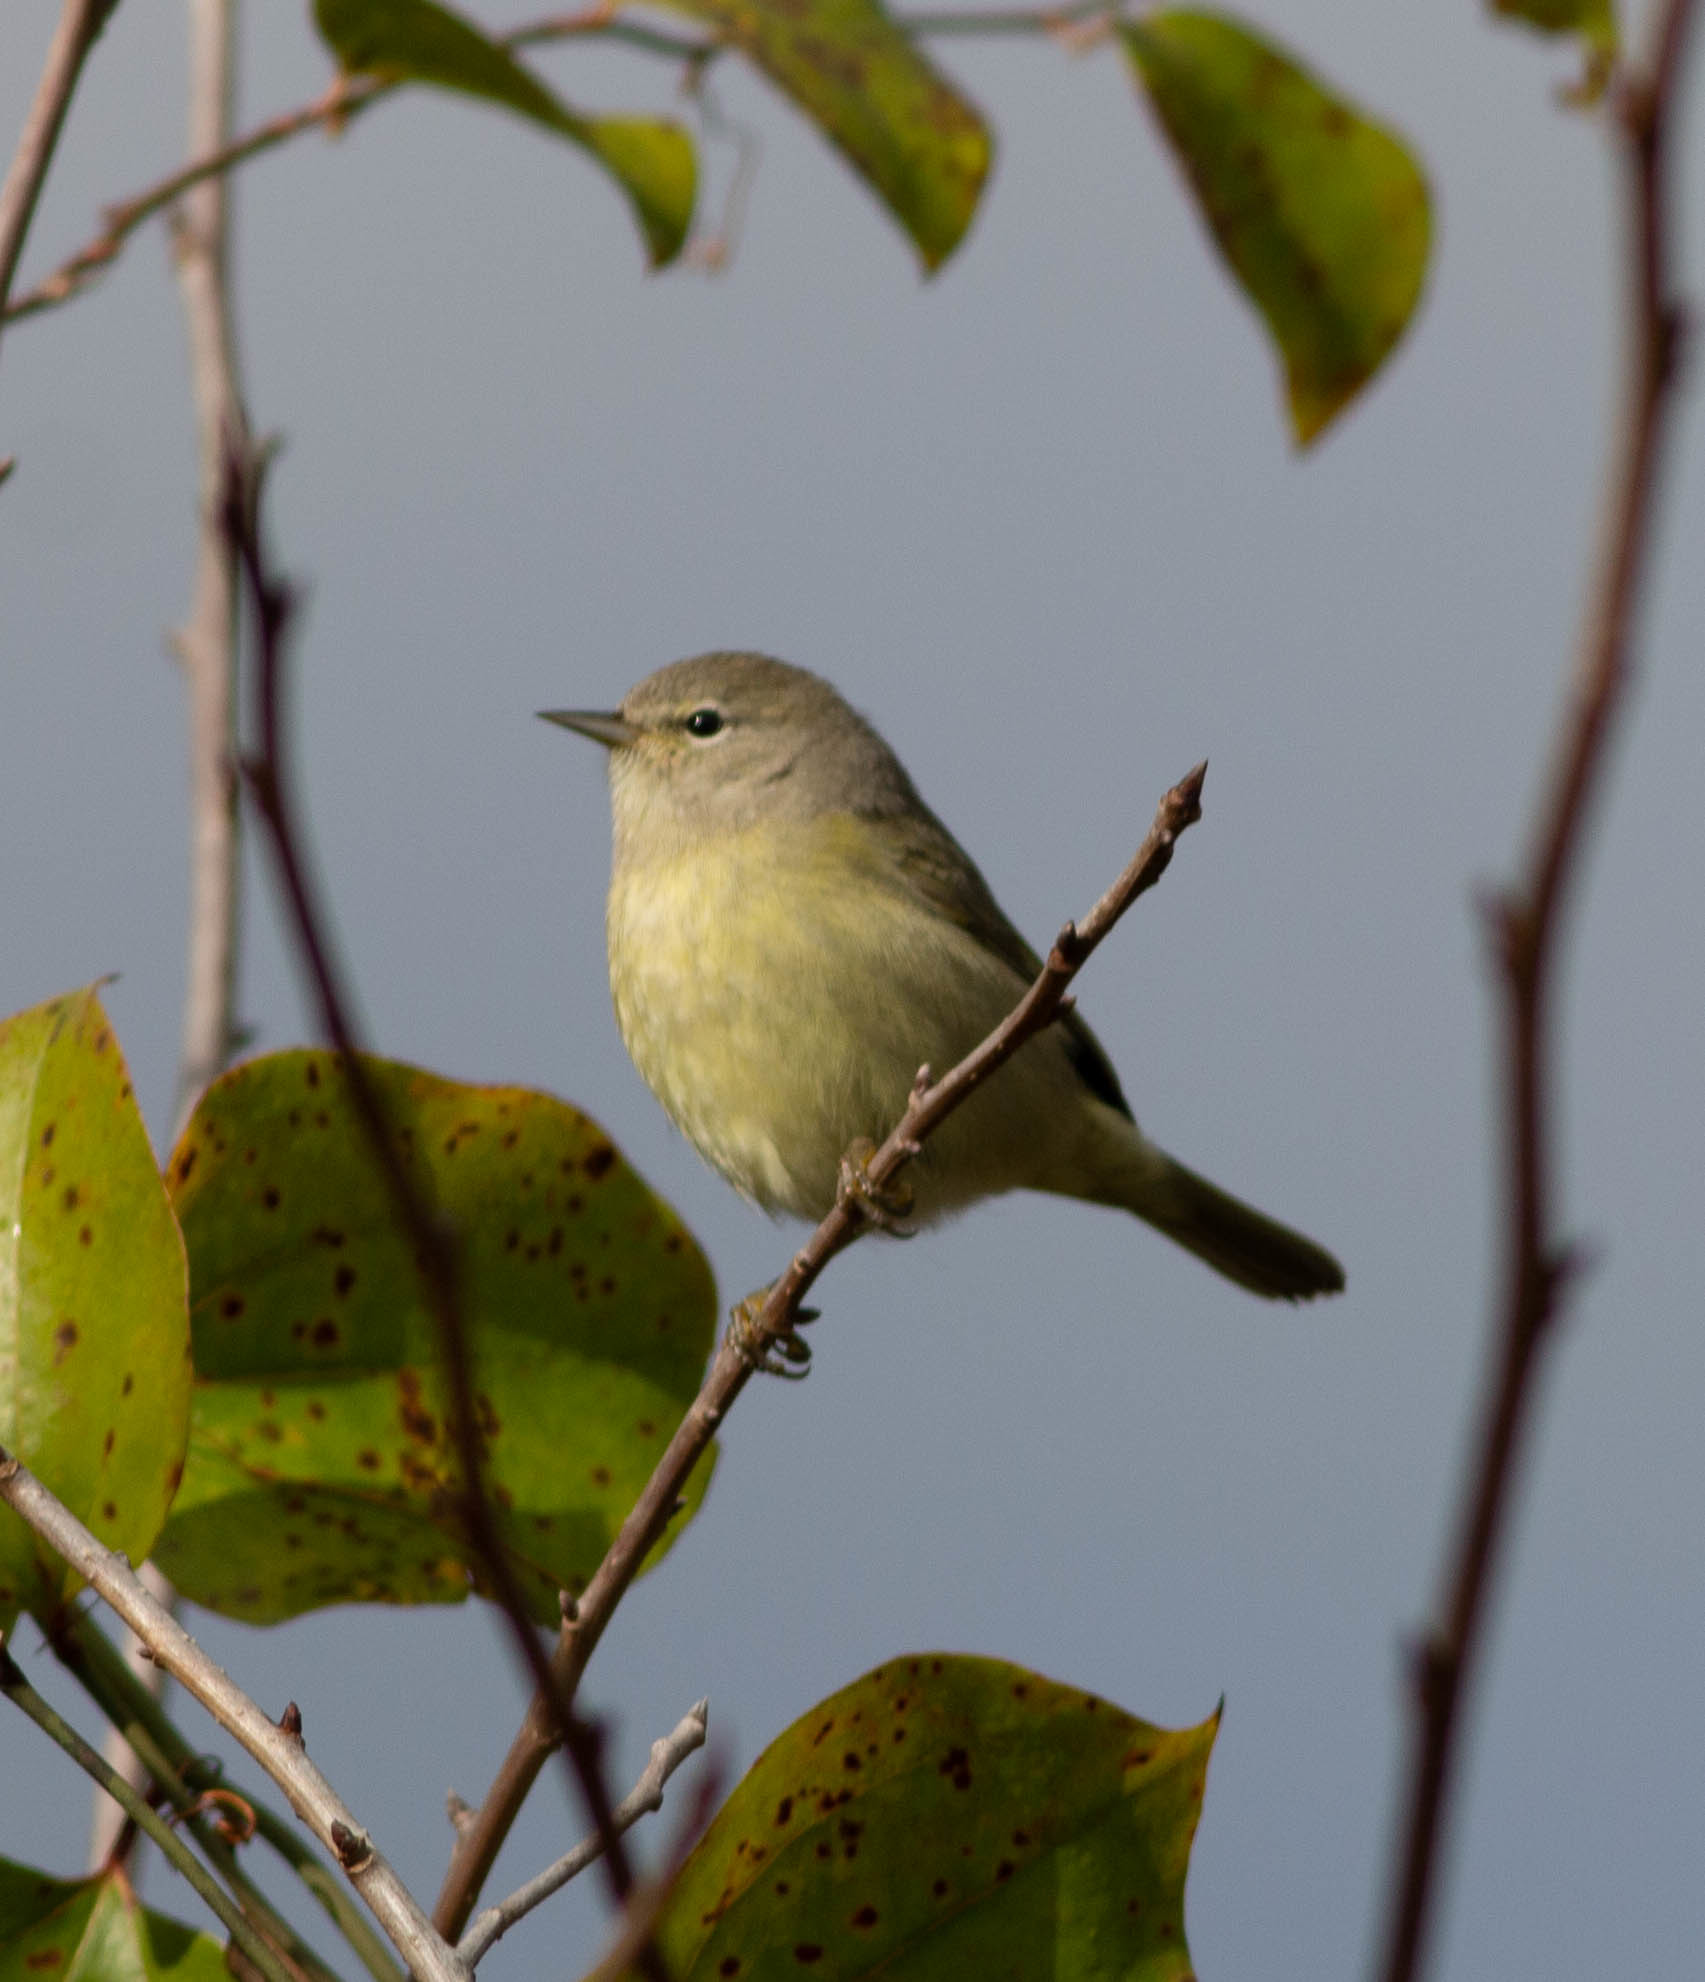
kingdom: Animalia
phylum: Chordata
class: Aves
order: Passeriformes
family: Parulidae
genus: Leiothlypis
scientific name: Leiothlypis celata
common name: Orange-crowned warbler
